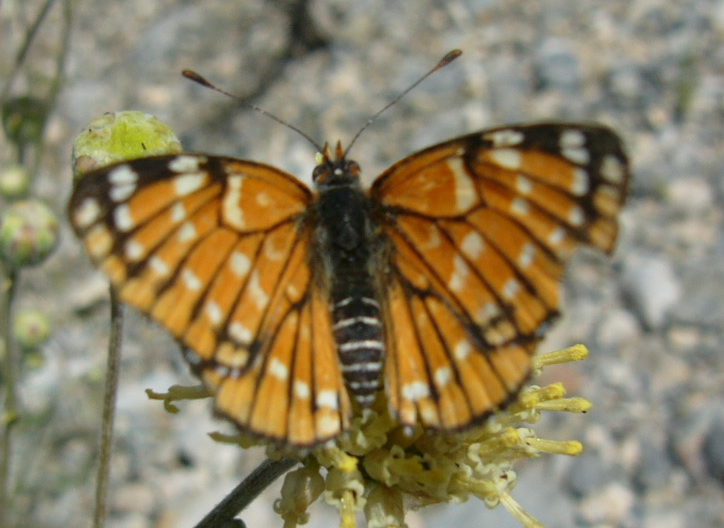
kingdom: Animalia
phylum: Arthropoda
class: Insecta
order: Lepidoptera
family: Nymphalidae
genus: Thessalia
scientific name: Thessalia leanira
